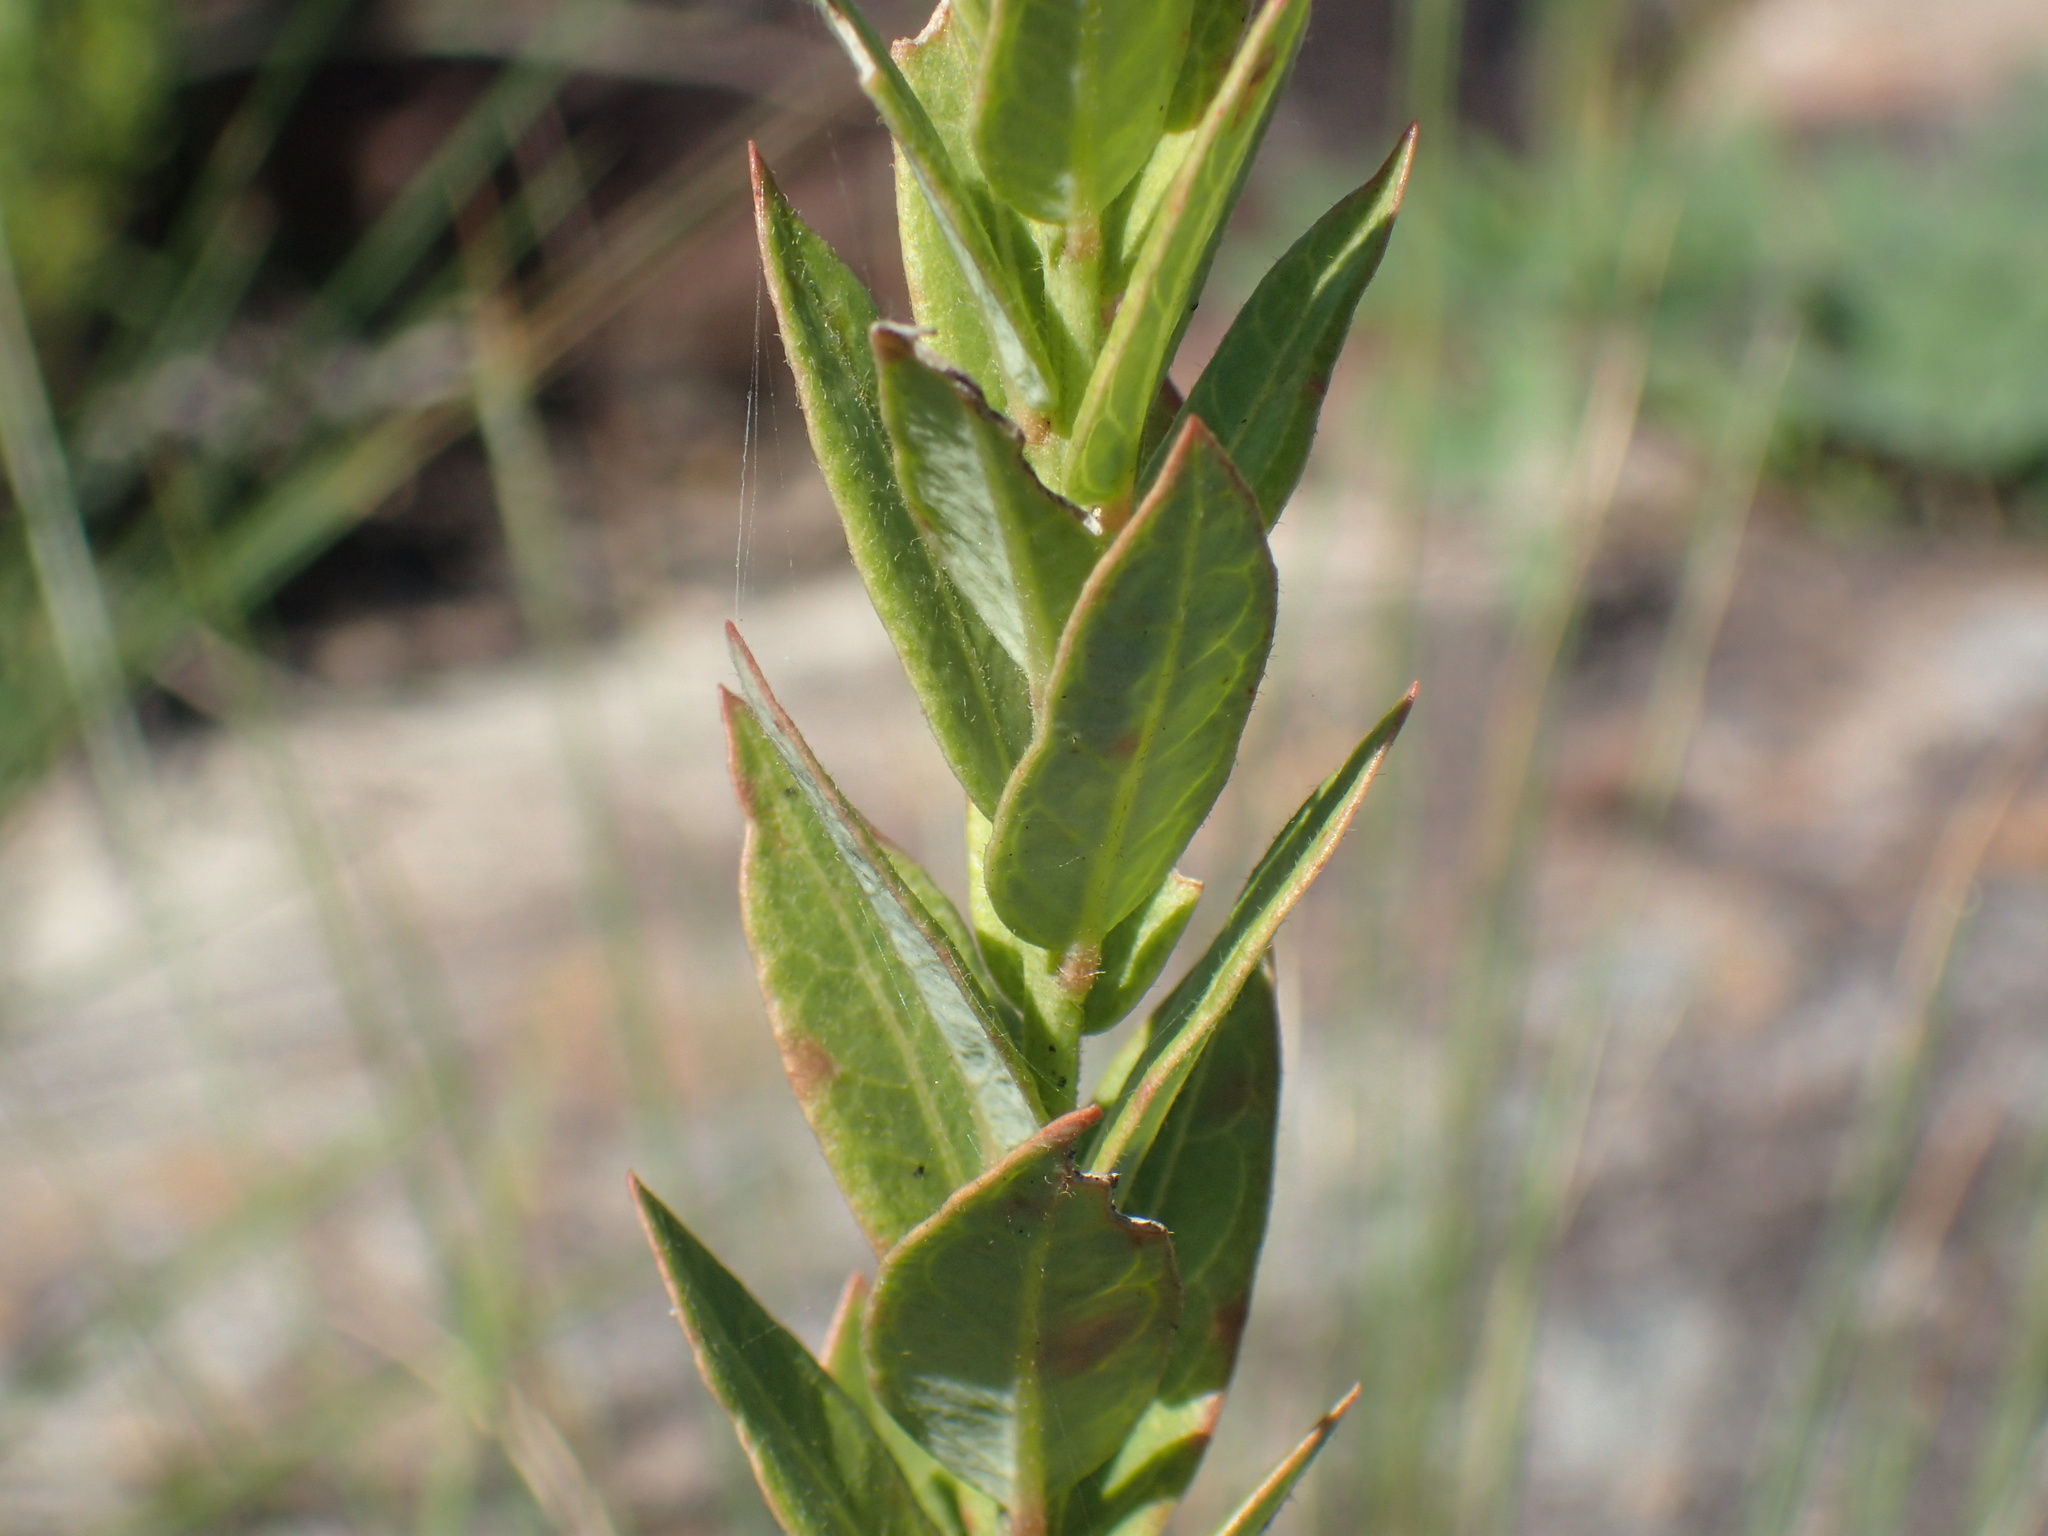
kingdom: Plantae
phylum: Tracheophyta
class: Magnoliopsida
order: Malpighiales
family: Peraceae
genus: Clutia
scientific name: Clutia cordata
